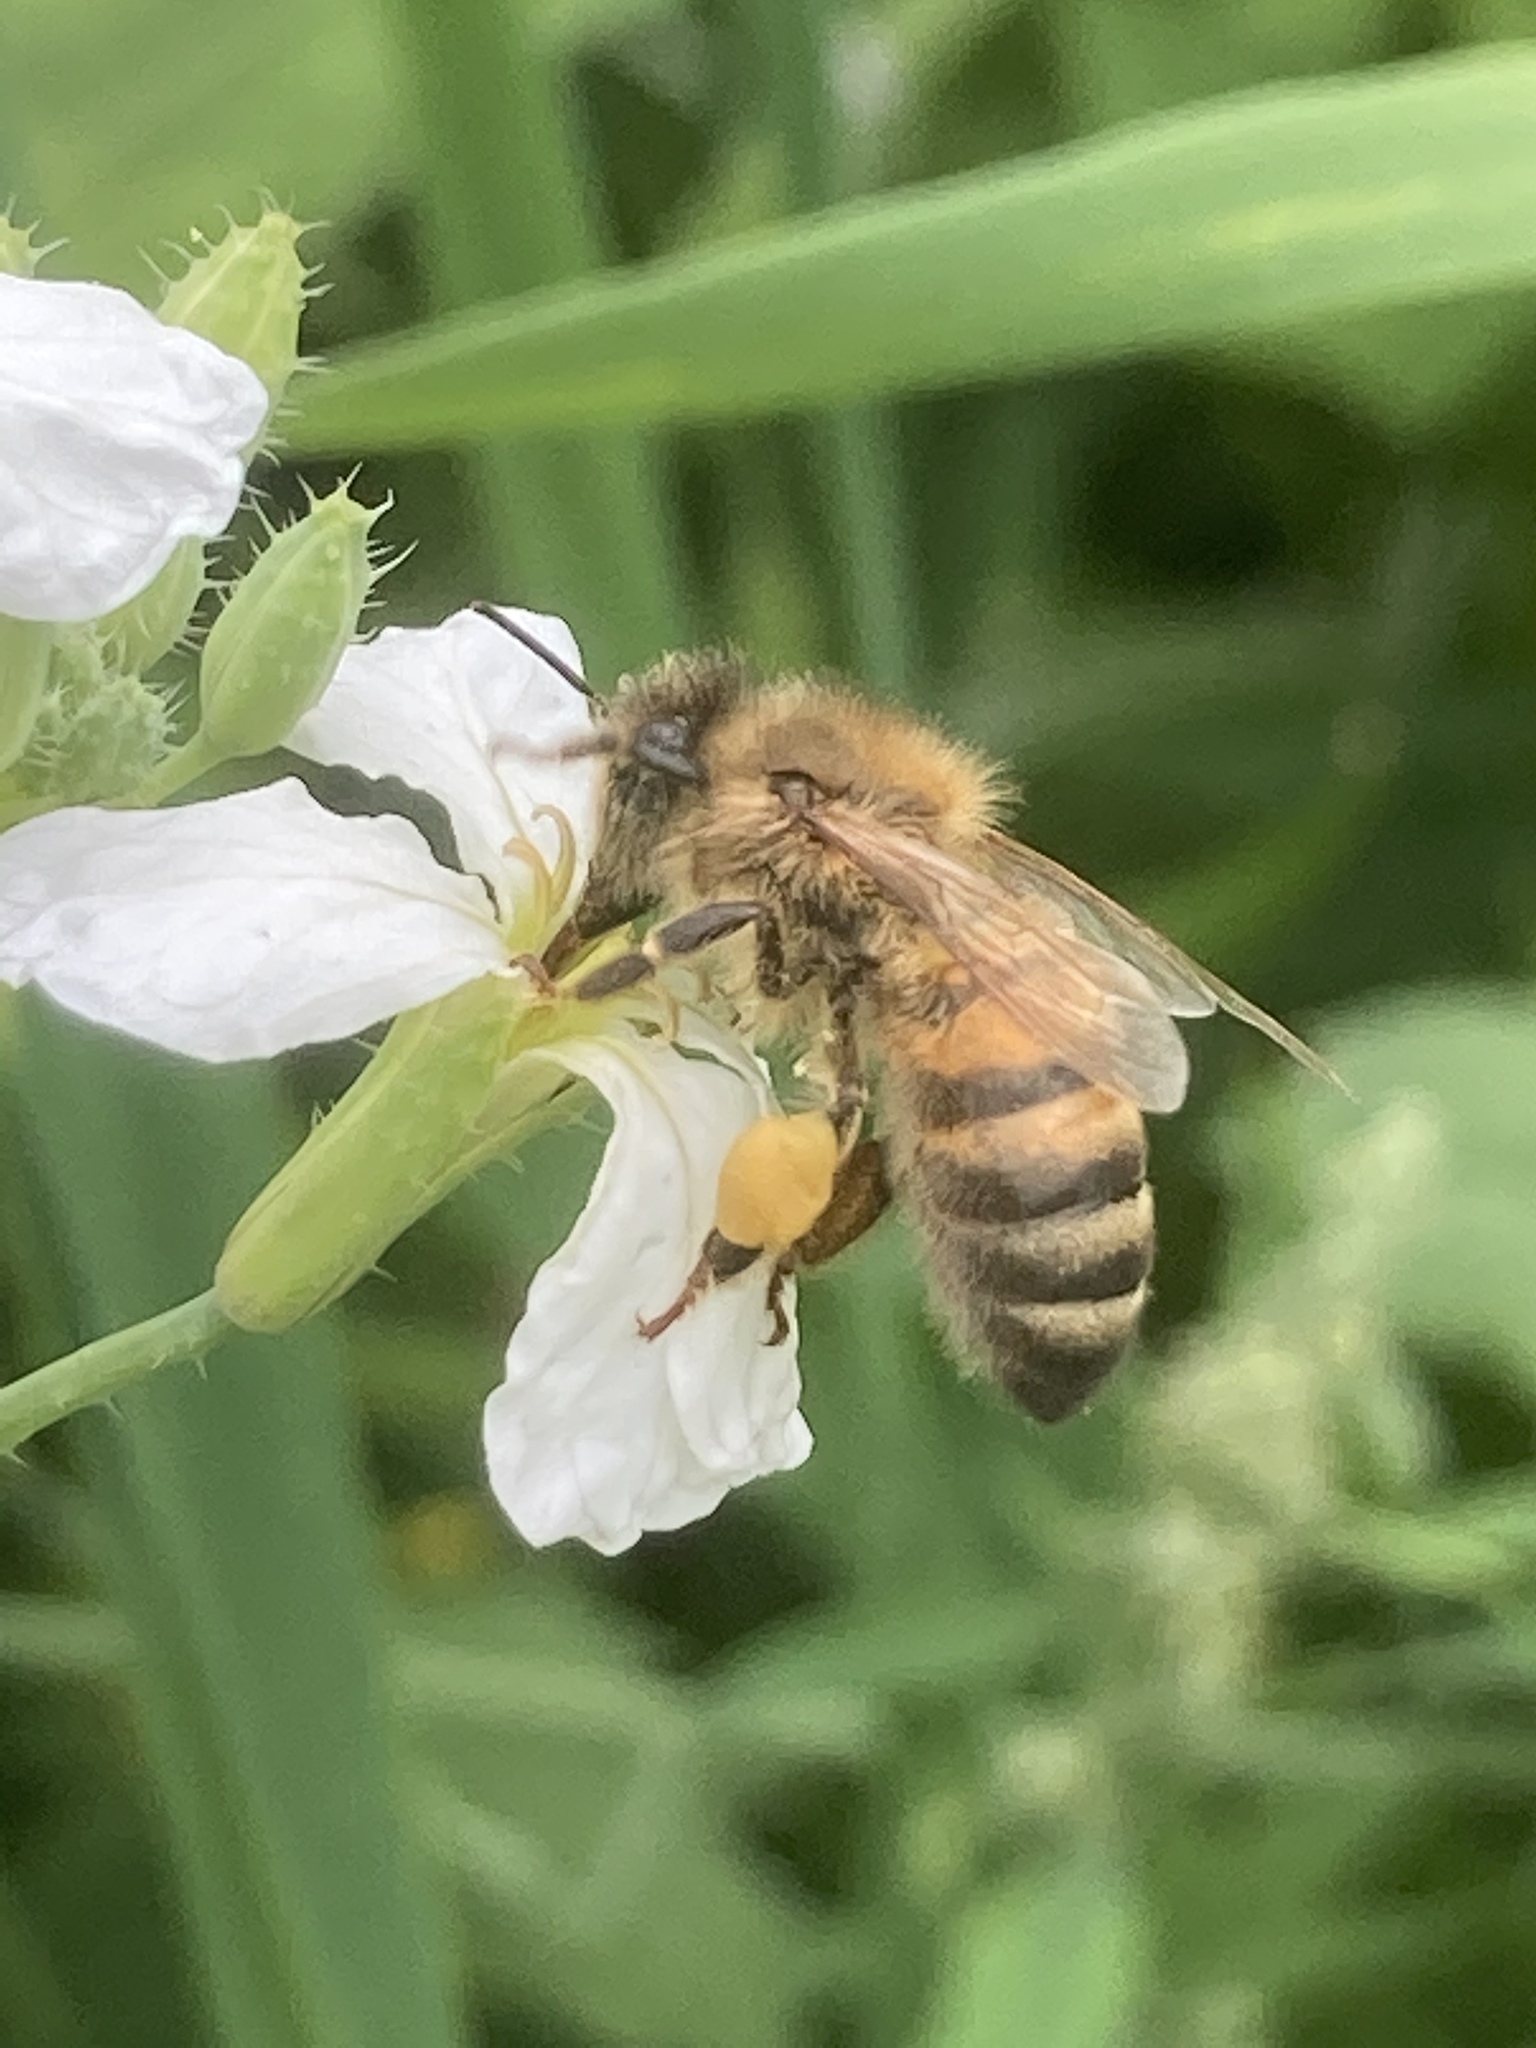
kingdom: Animalia
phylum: Arthropoda
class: Insecta
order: Hymenoptera
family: Apidae
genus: Apis
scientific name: Apis mellifera
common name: Honey bee
